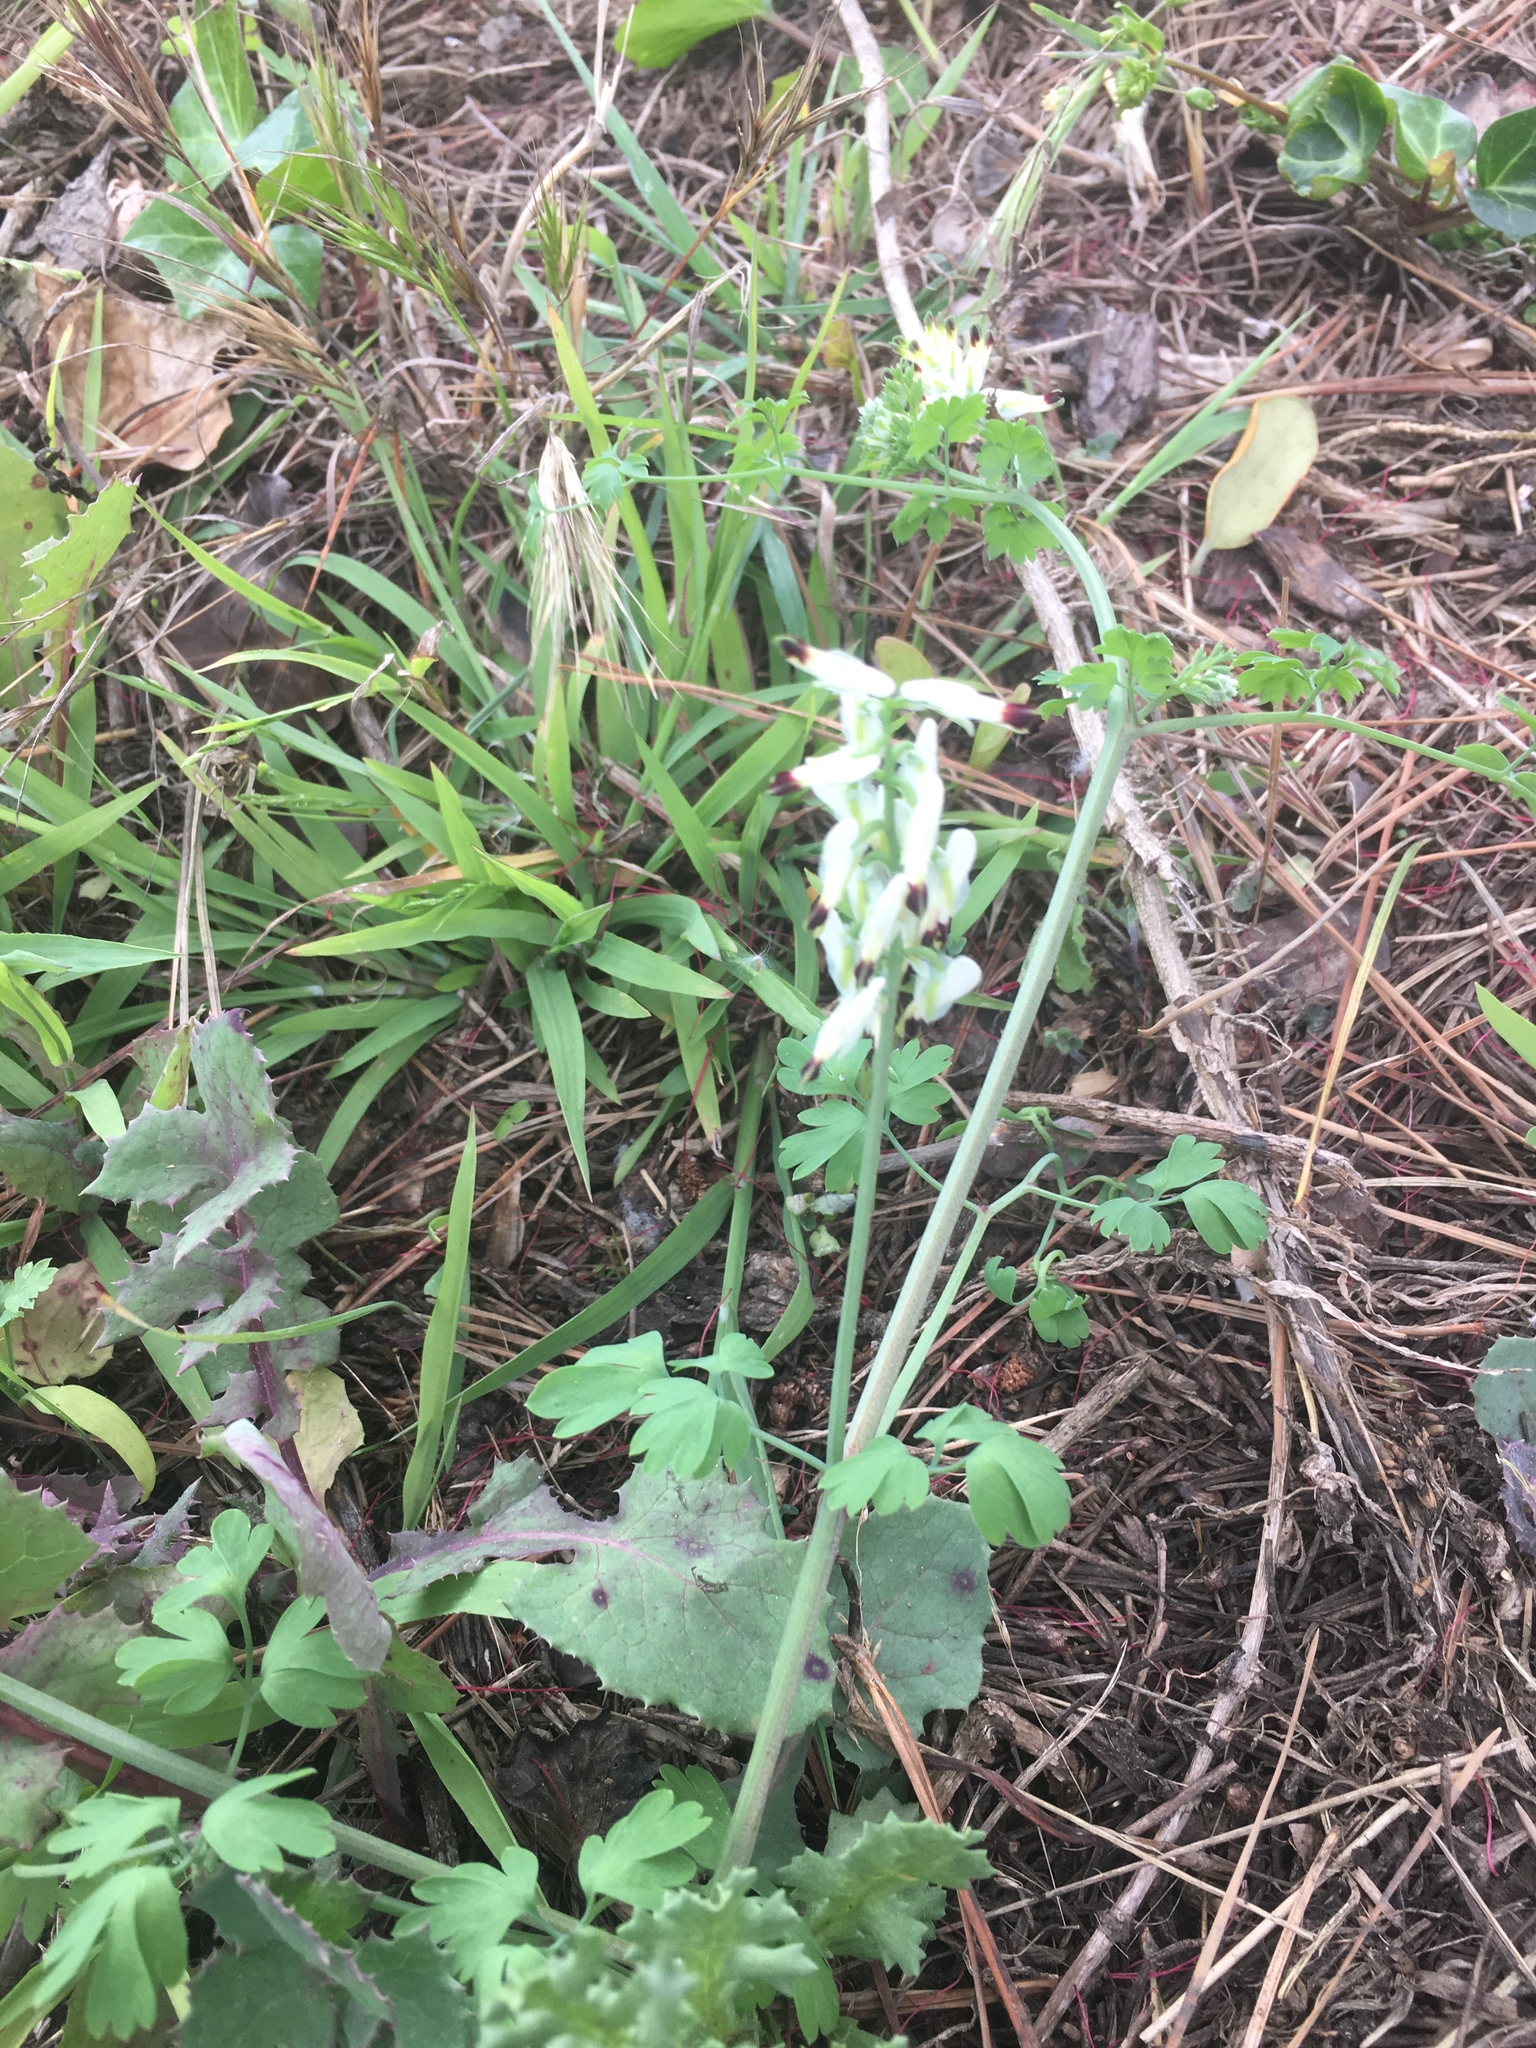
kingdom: Plantae
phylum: Tracheophyta
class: Magnoliopsida
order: Ranunculales
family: Papaveraceae
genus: Fumaria
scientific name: Fumaria capreolata
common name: White ramping-fumitory
